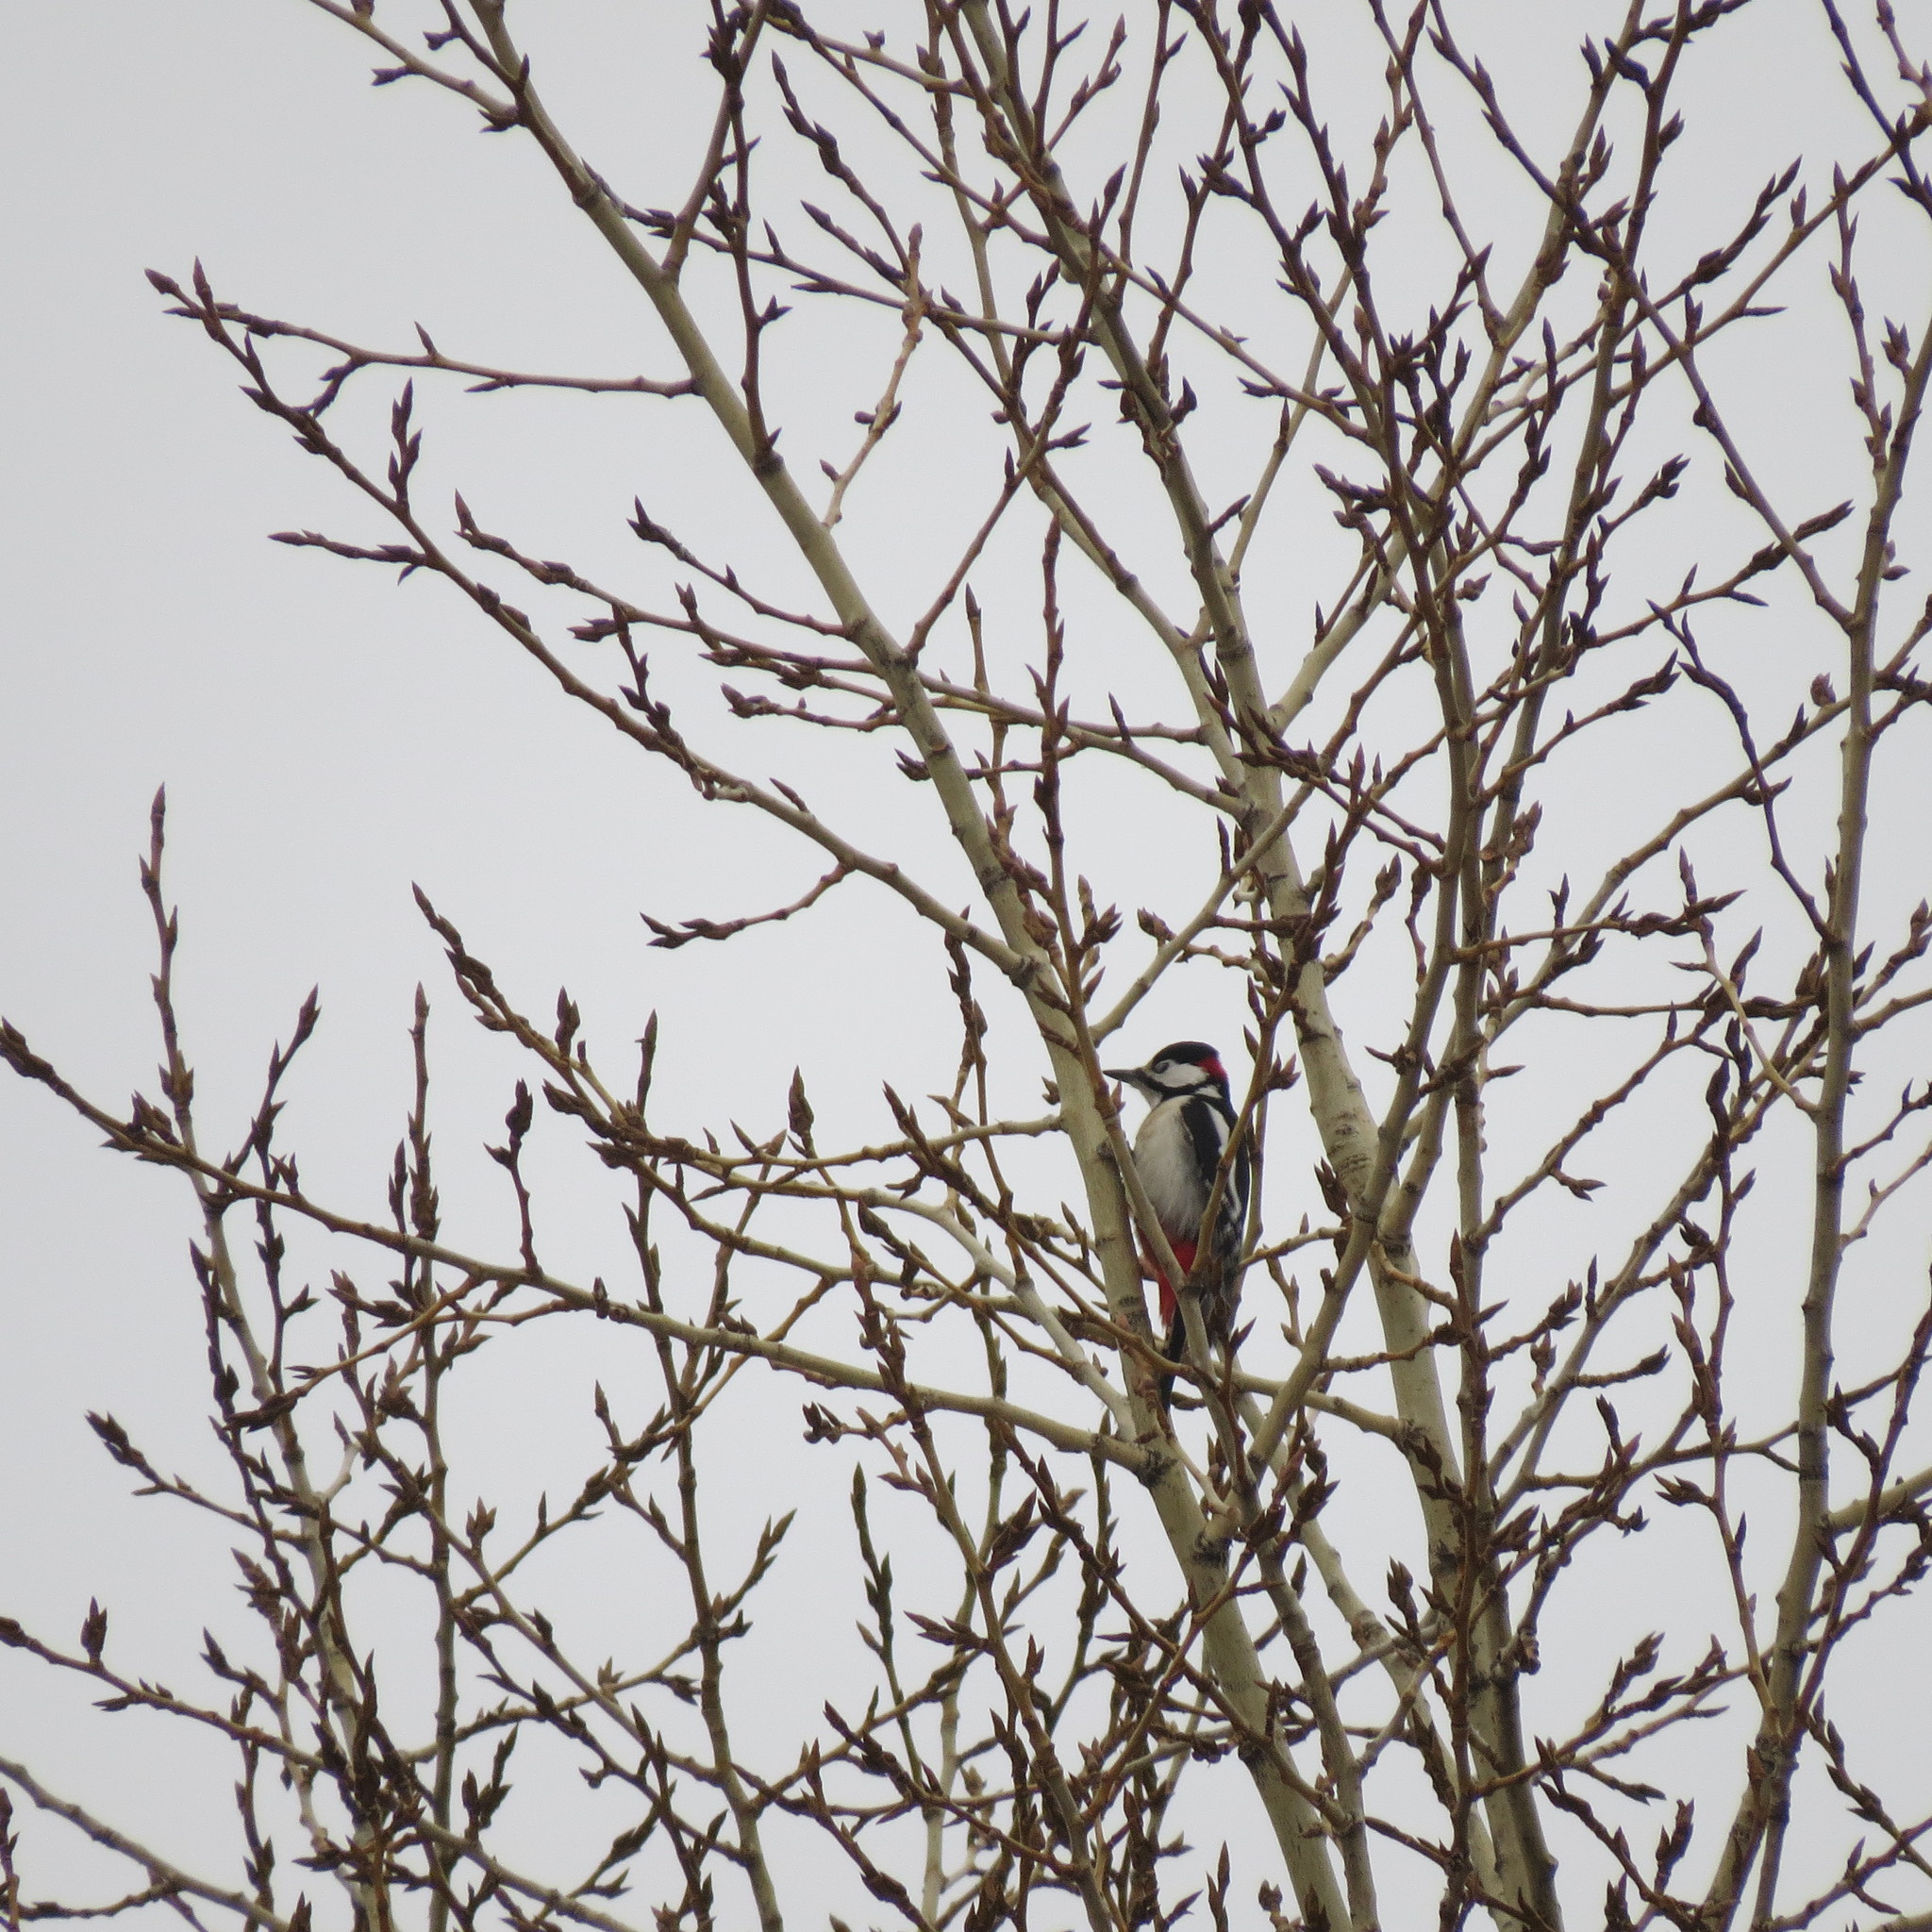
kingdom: Animalia
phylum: Chordata
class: Aves
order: Piciformes
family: Picidae
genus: Dendrocopos
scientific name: Dendrocopos major
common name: Great spotted woodpecker
